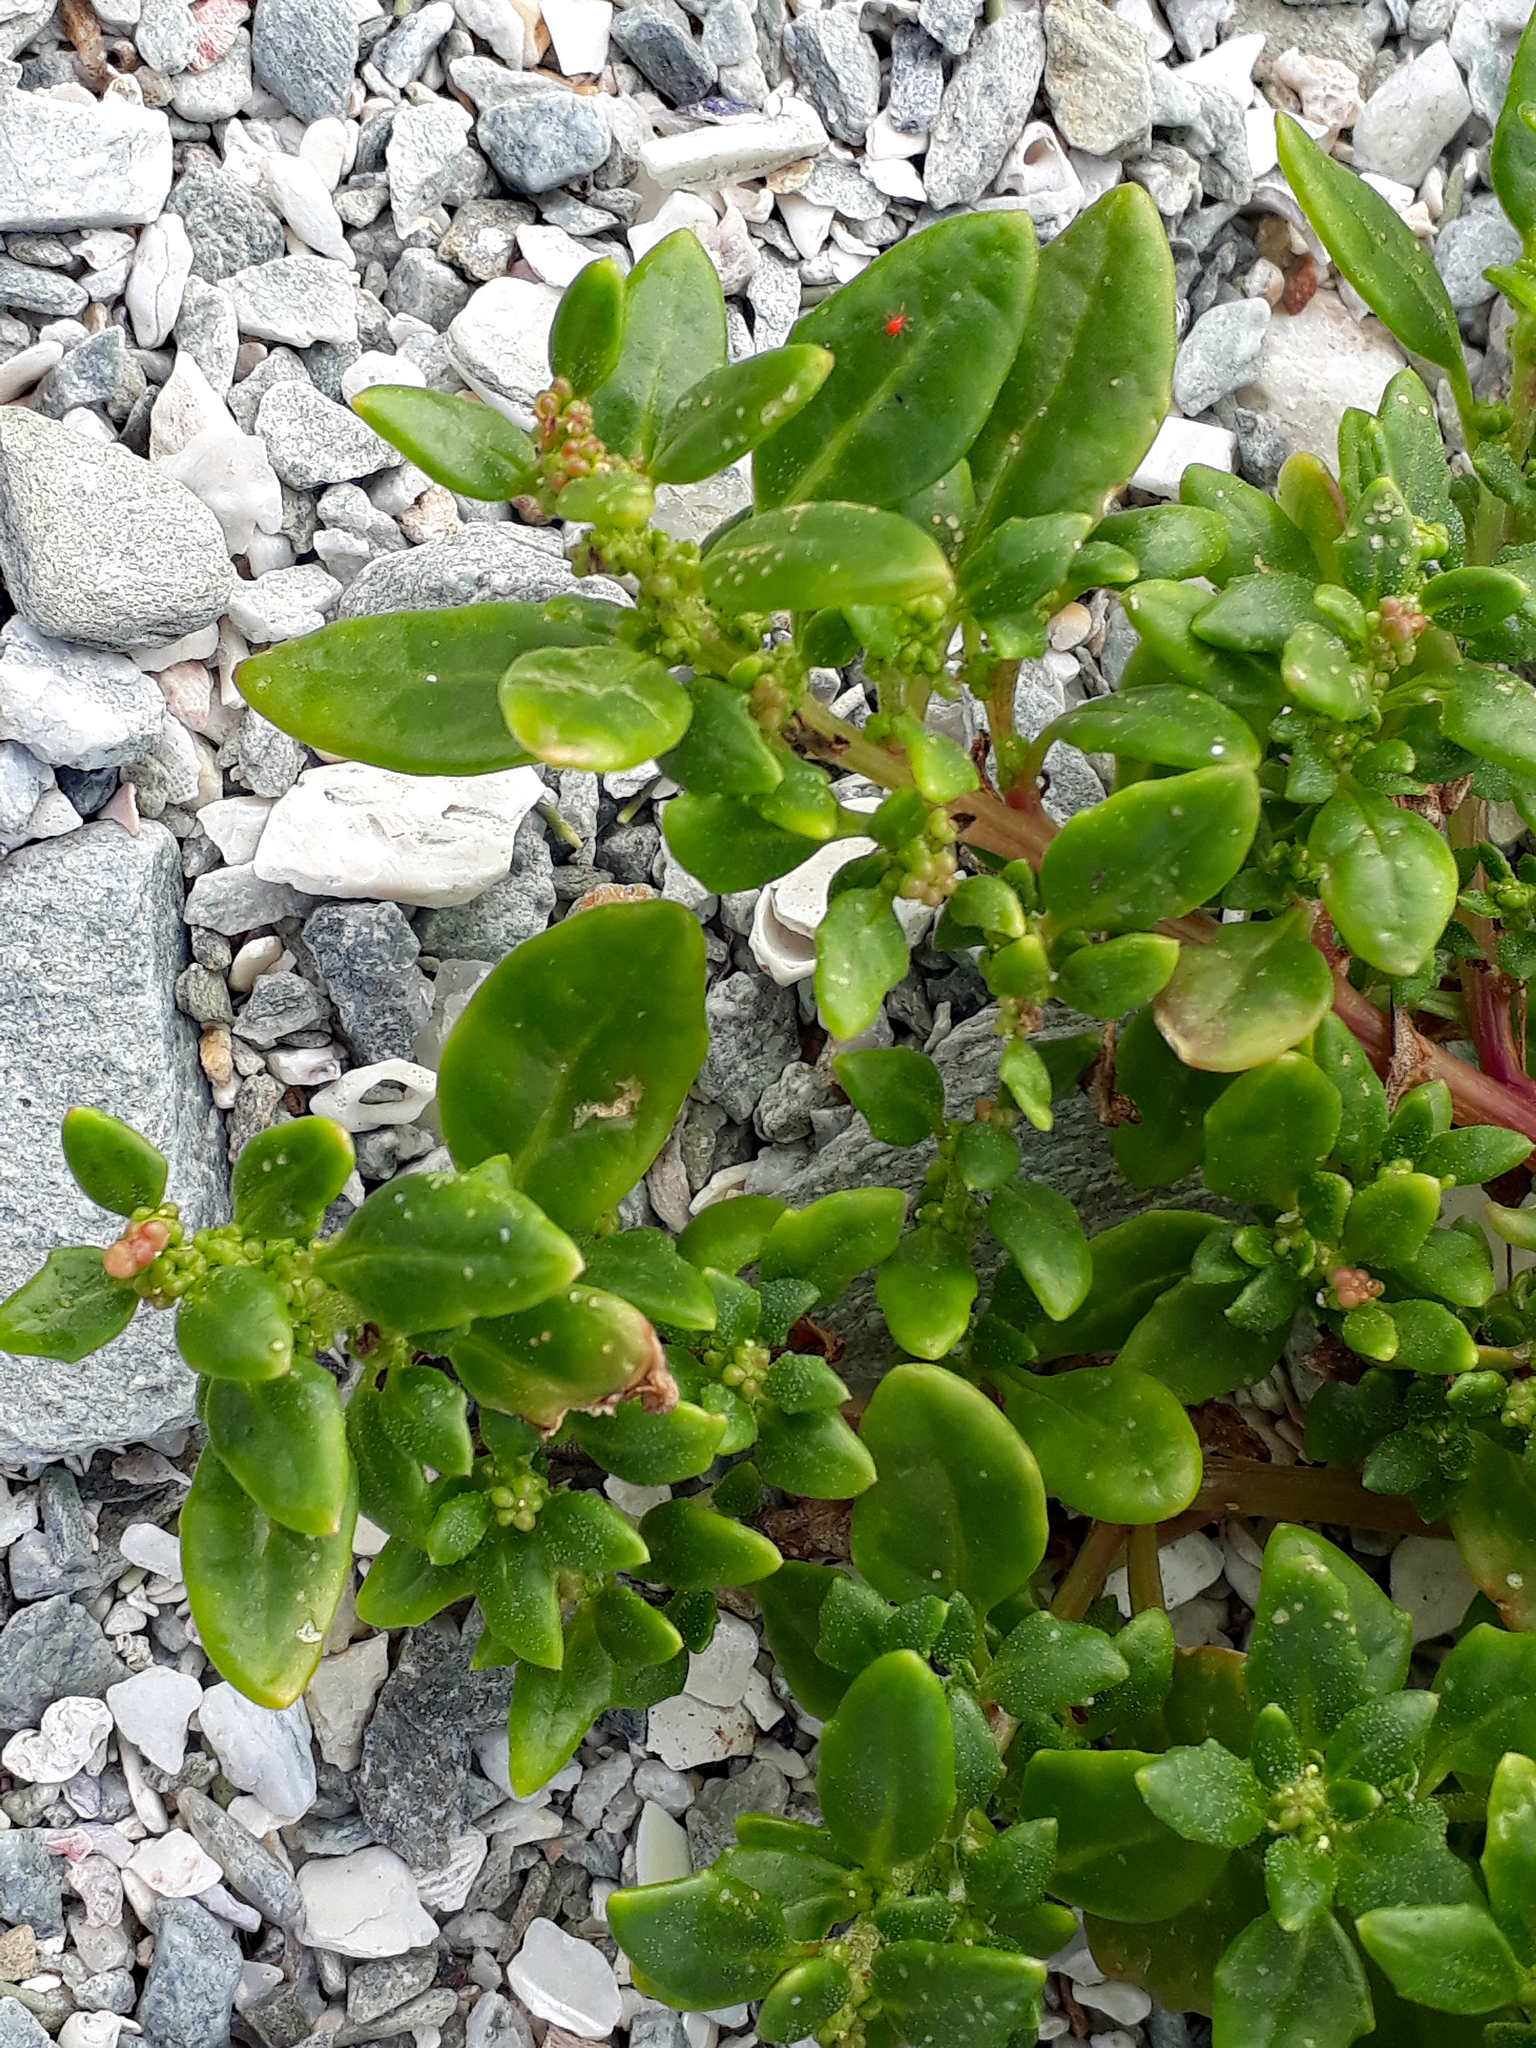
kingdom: Plantae
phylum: Tracheophyta
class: Magnoliopsida
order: Caryophyllales
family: Amaranthaceae
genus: Oxybasis
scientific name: Oxybasis ambigua
